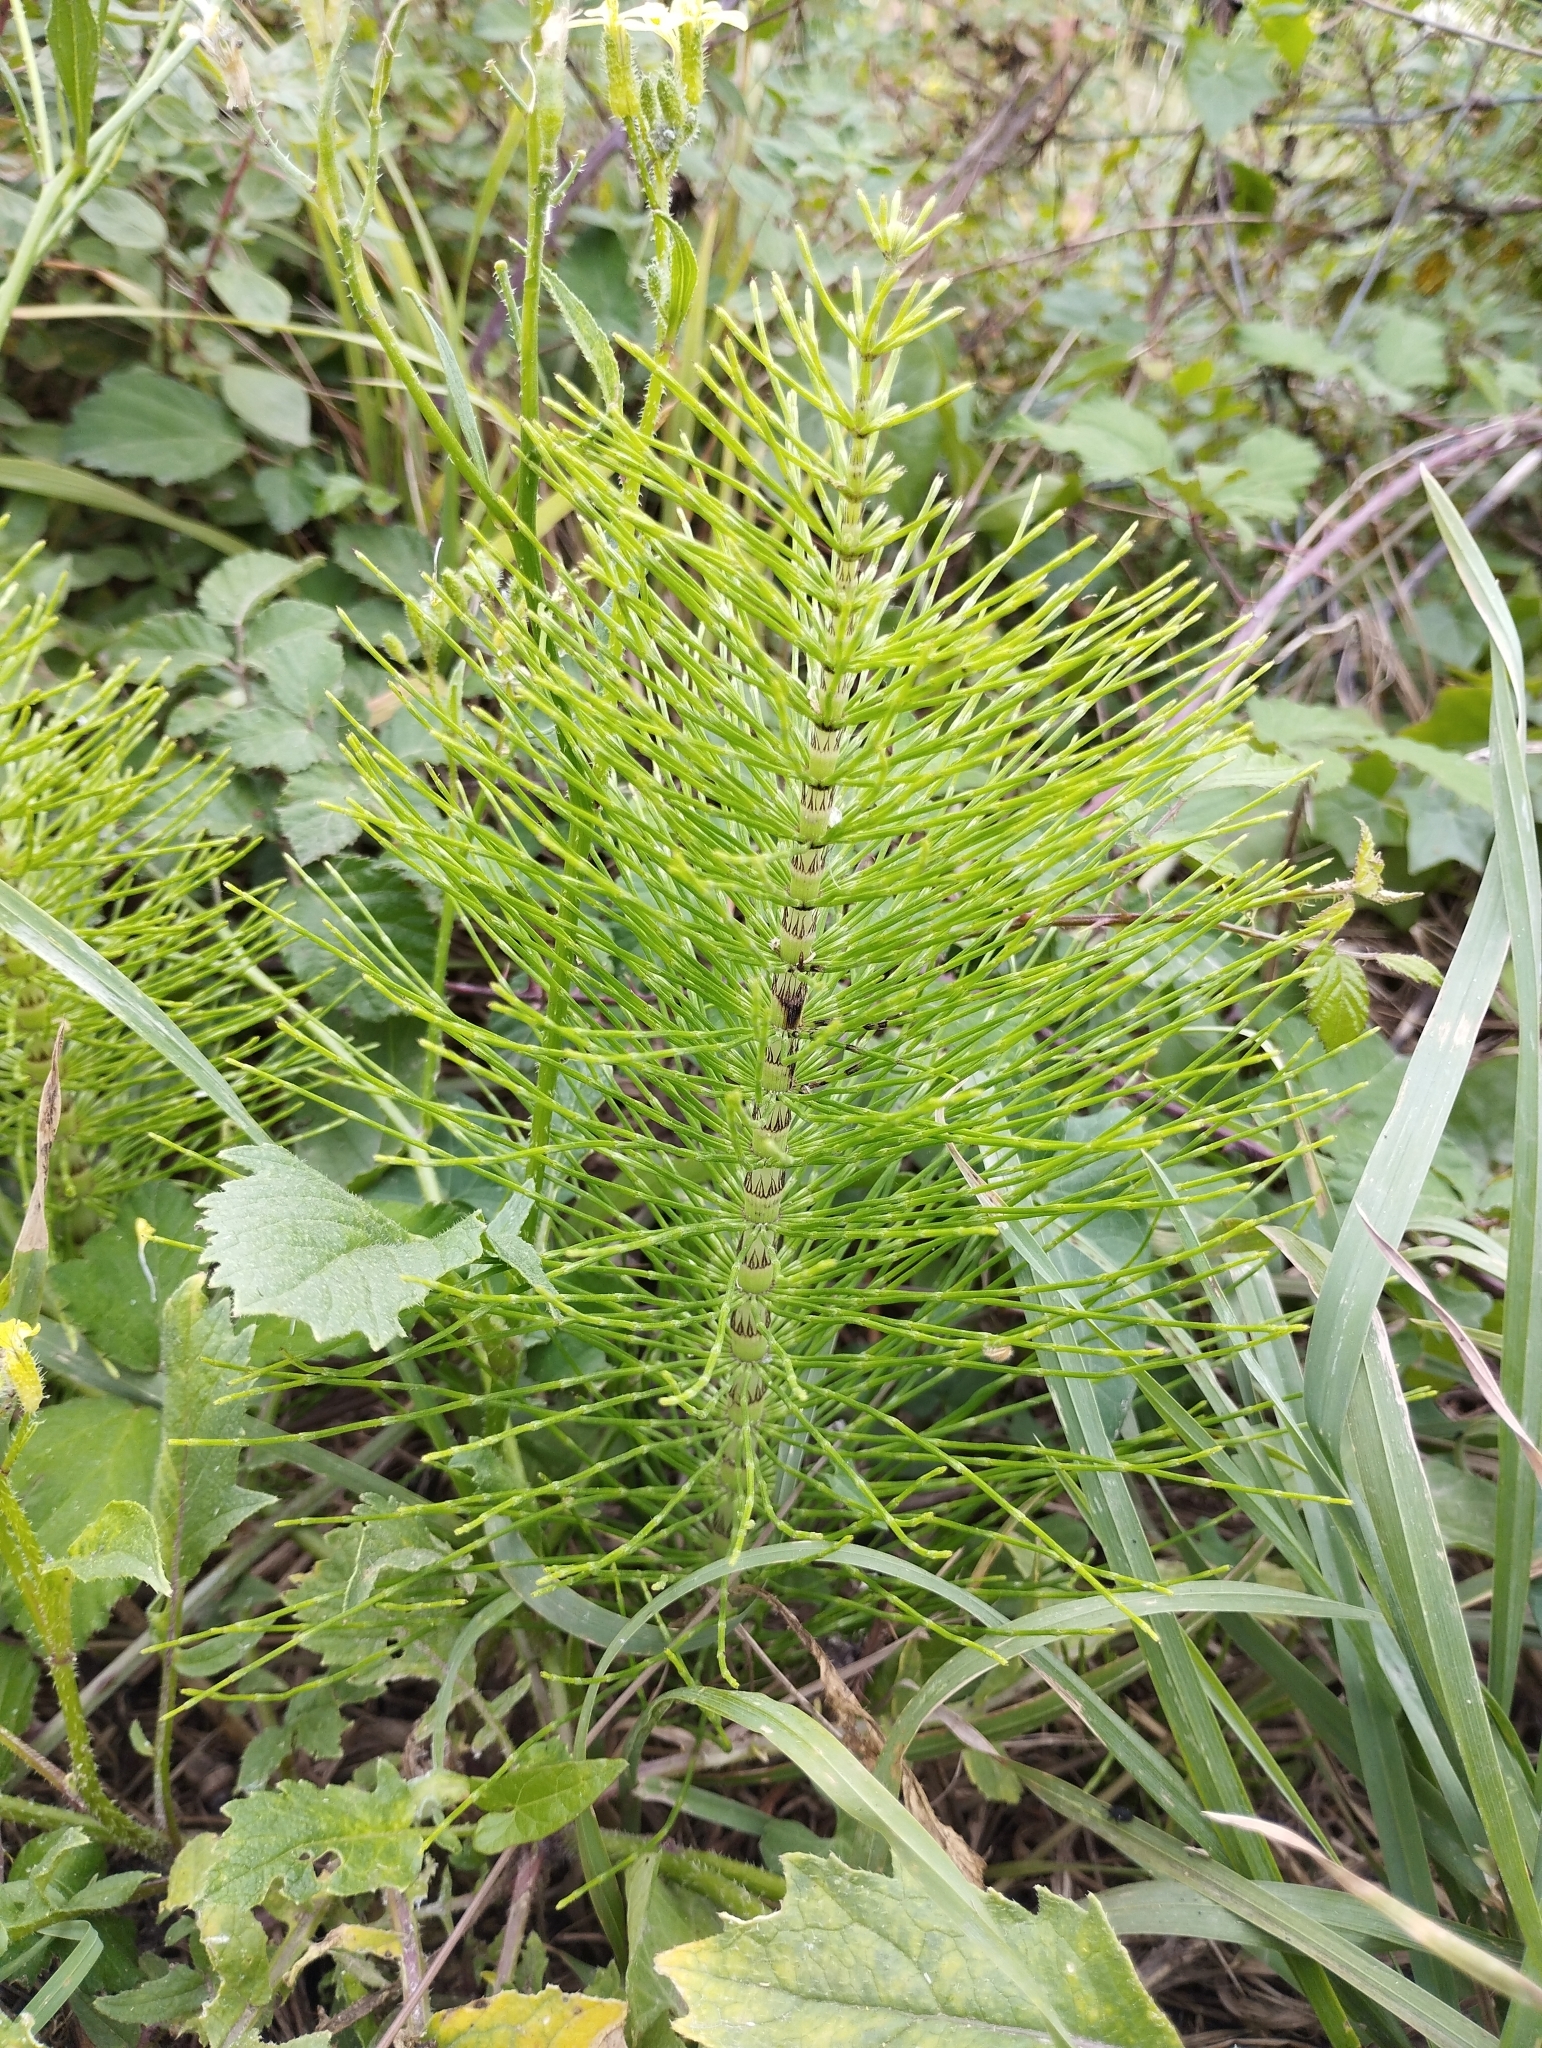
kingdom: Plantae
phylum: Tracheophyta
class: Polypodiopsida
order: Equisetales
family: Equisetaceae
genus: Equisetum
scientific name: Equisetum telmateia
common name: Great horsetail
